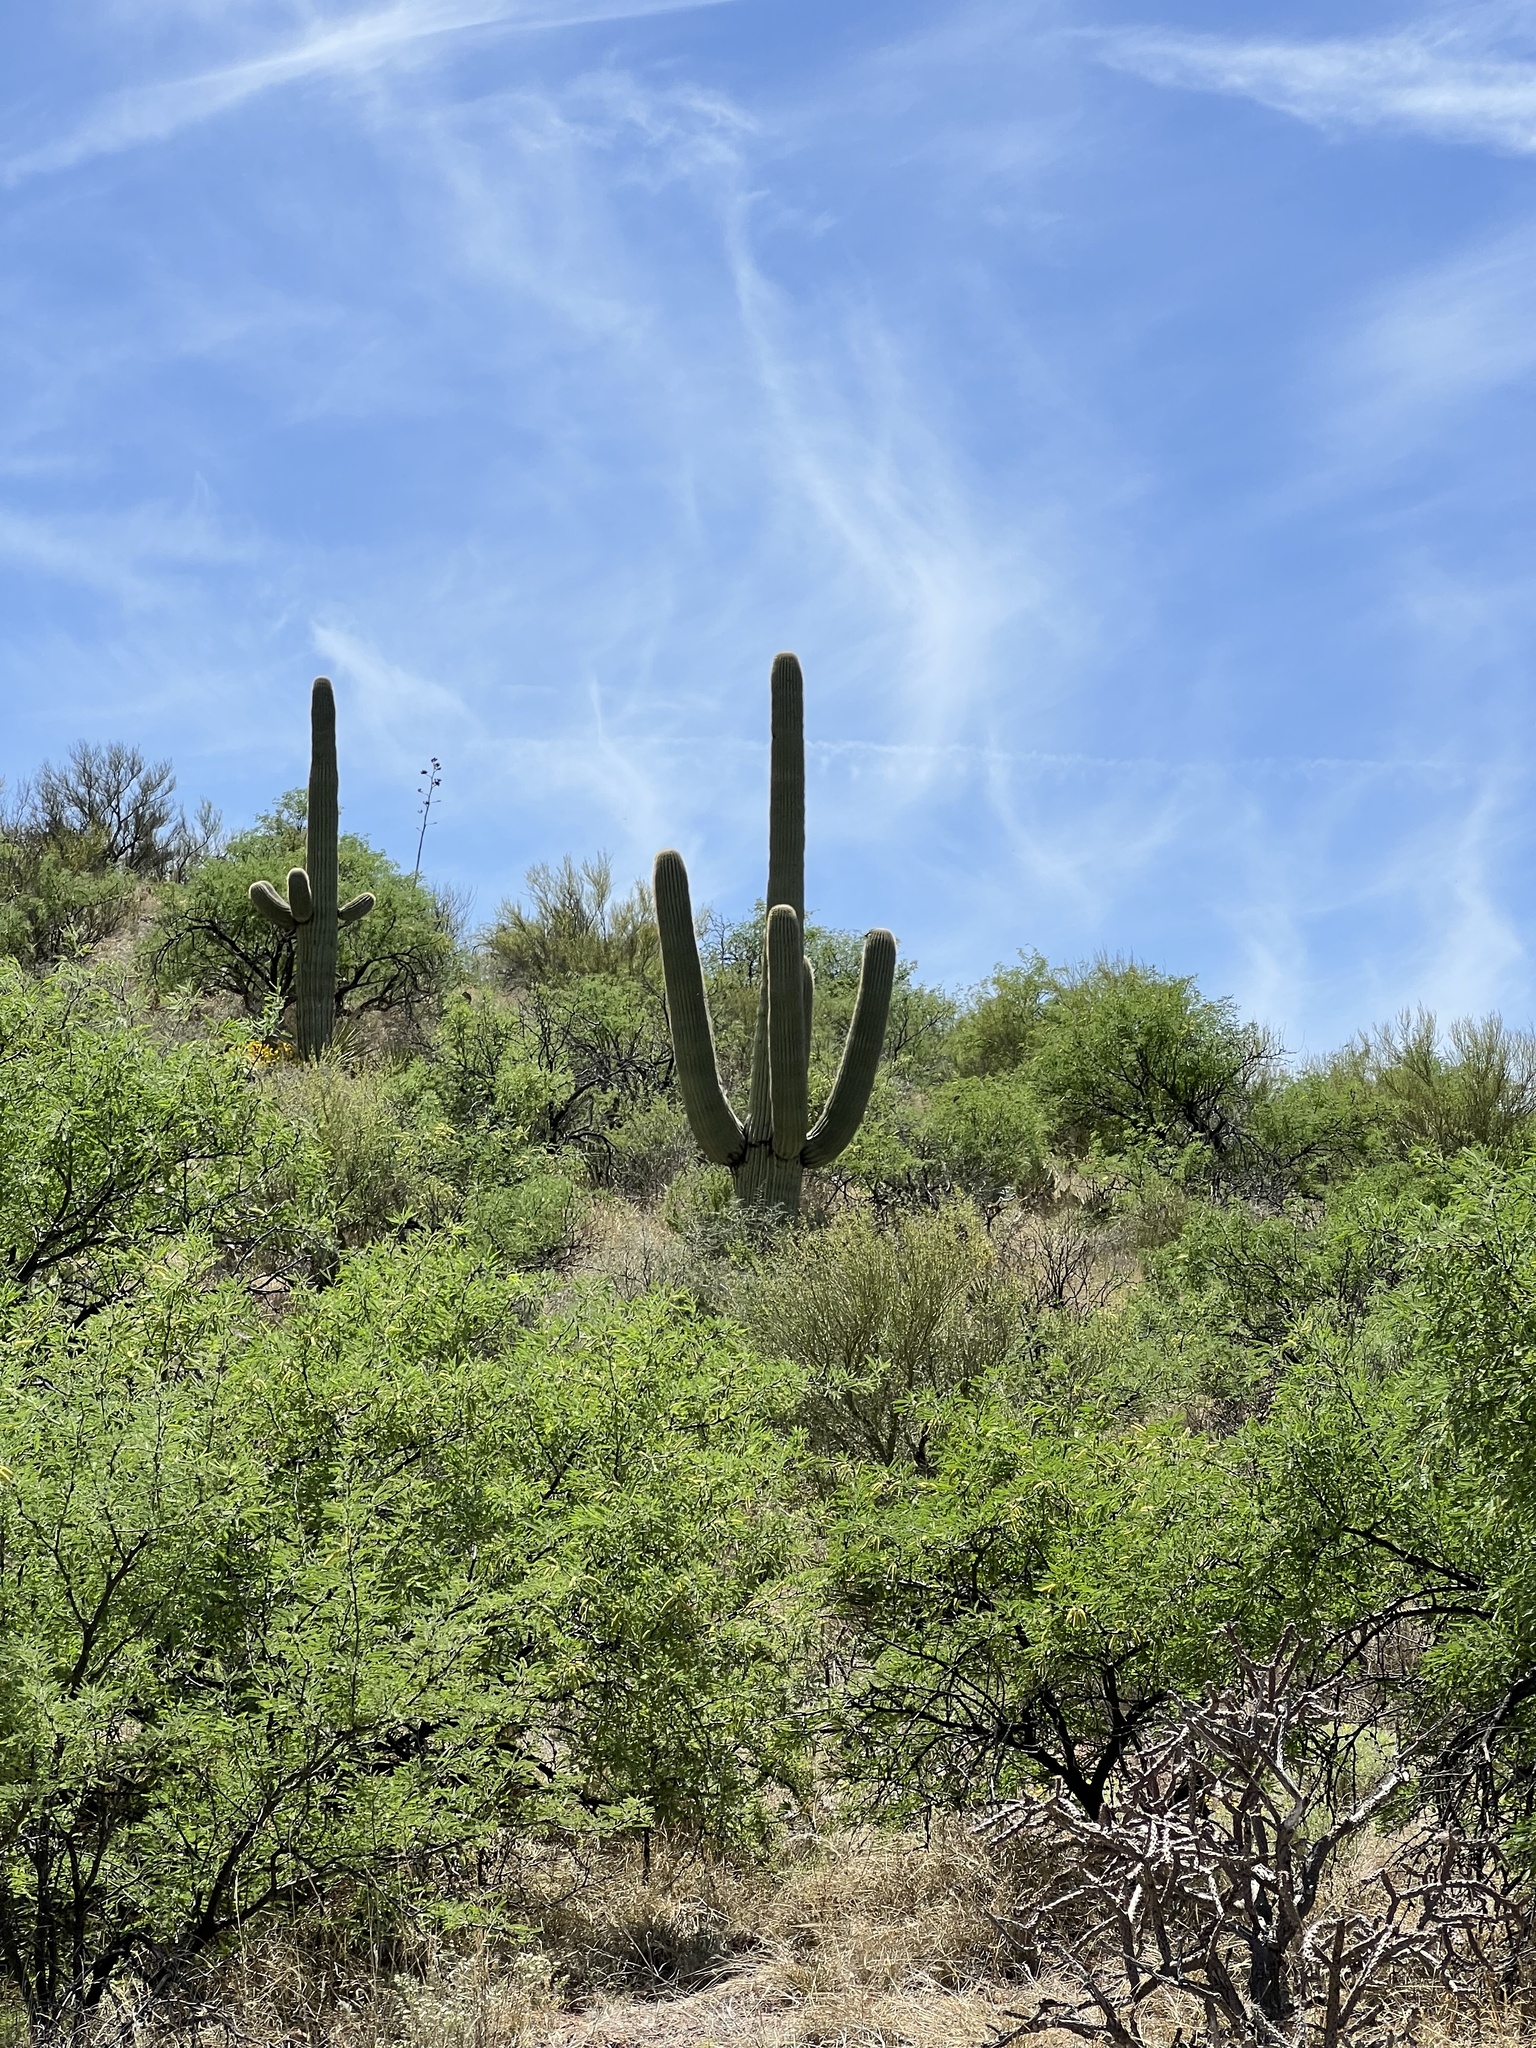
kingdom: Plantae
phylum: Tracheophyta
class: Magnoliopsida
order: Caryophyllales
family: Cactaceae
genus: Carnegiea
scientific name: Carnegiea gigantea
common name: Saguaro
